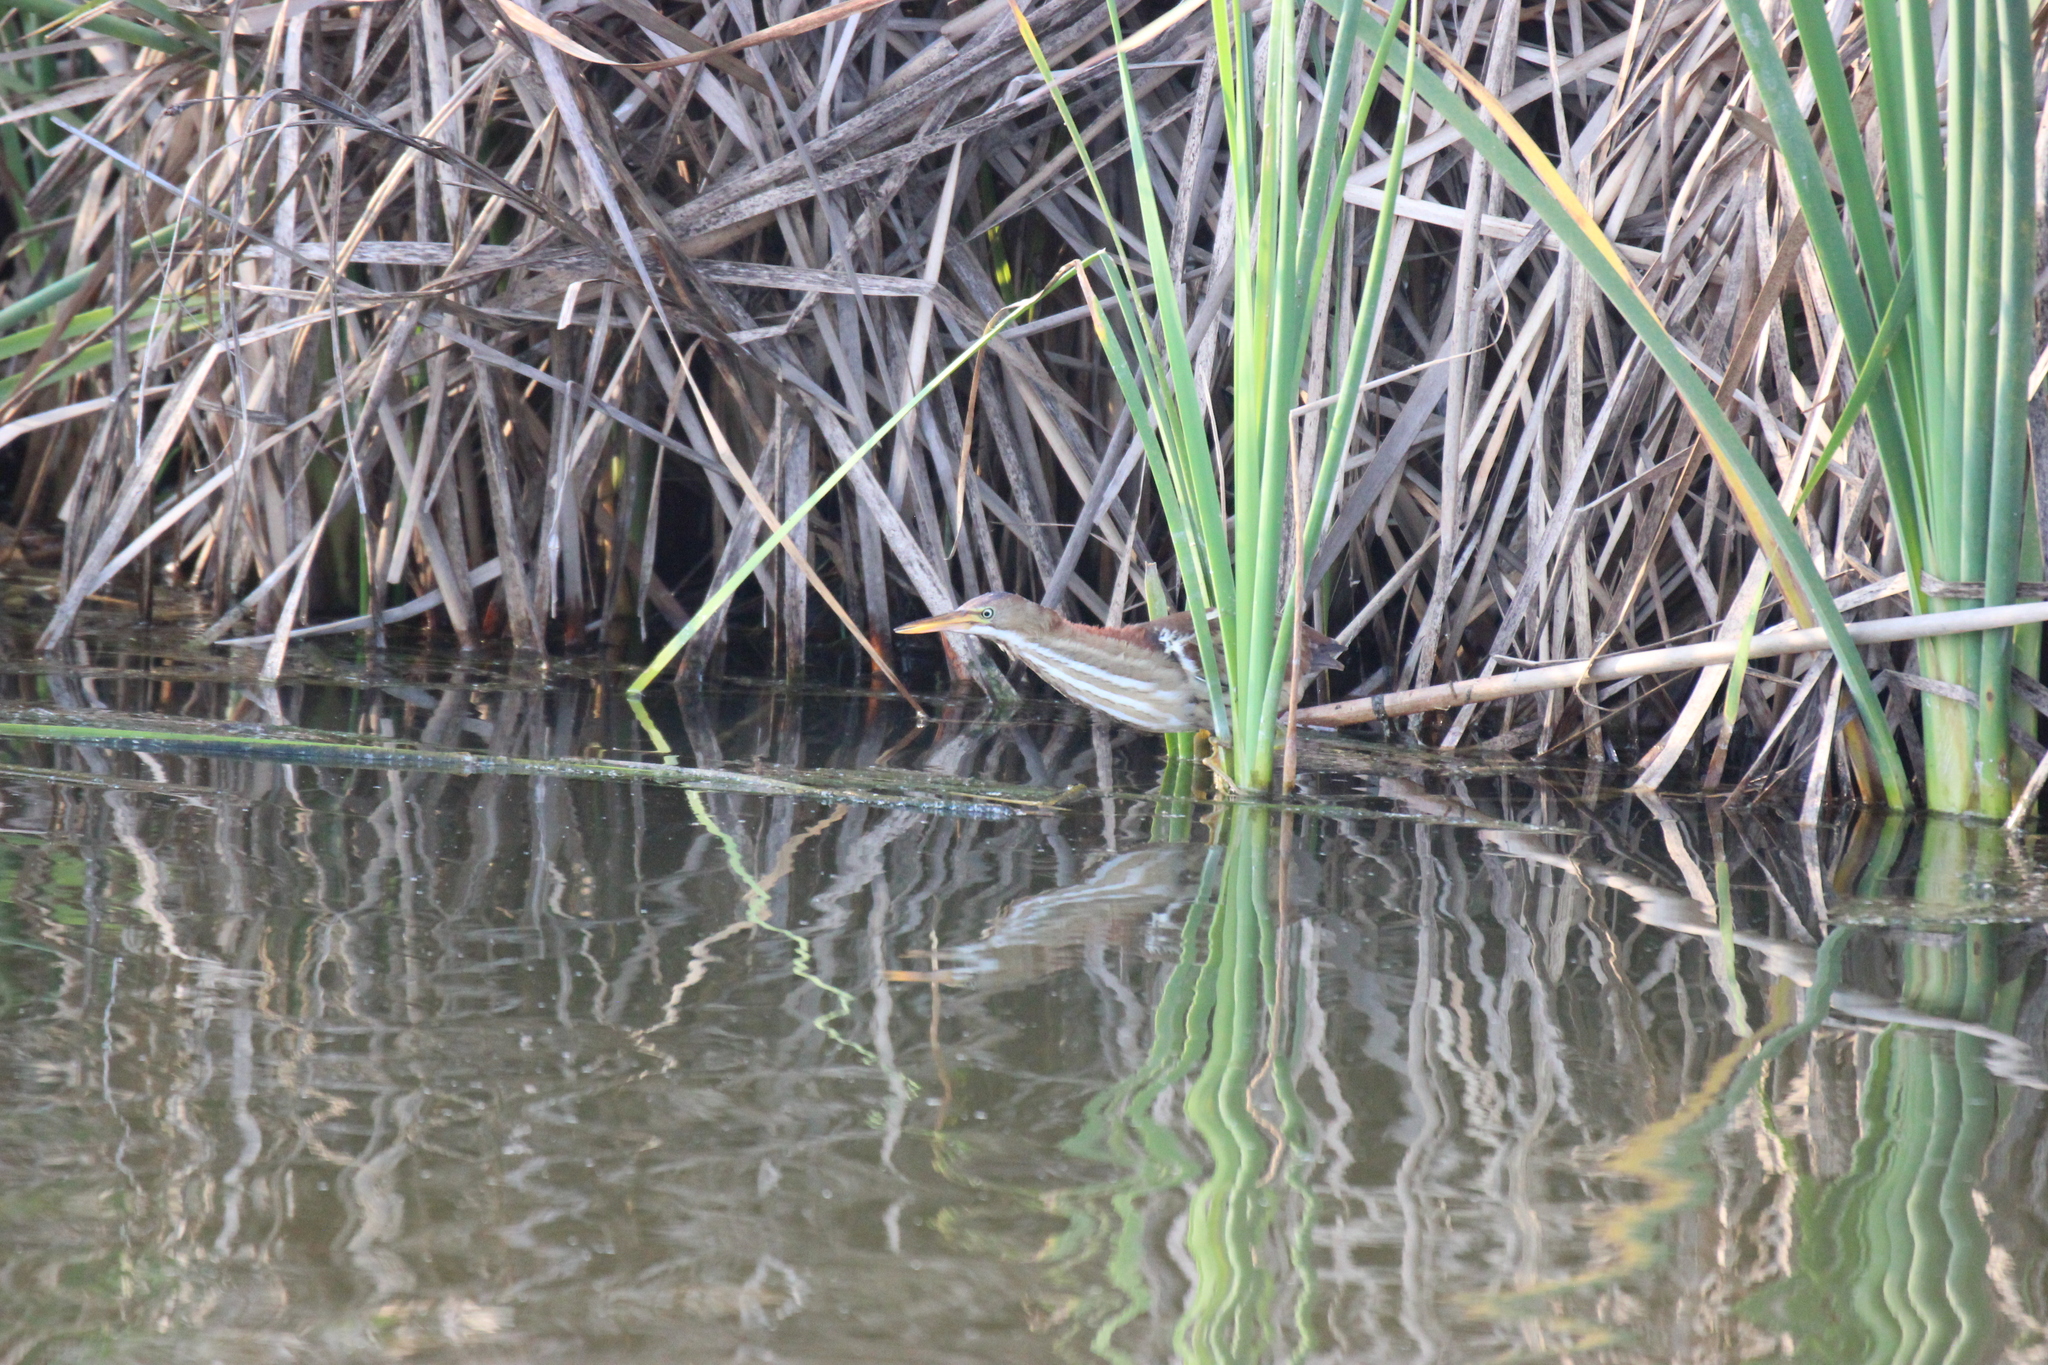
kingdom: Animalia
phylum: Chordata
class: Aves
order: Pelecaniformes
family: Ardeidae
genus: Ixobrychus
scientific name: Ixobrychus exilis
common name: Least bittern
